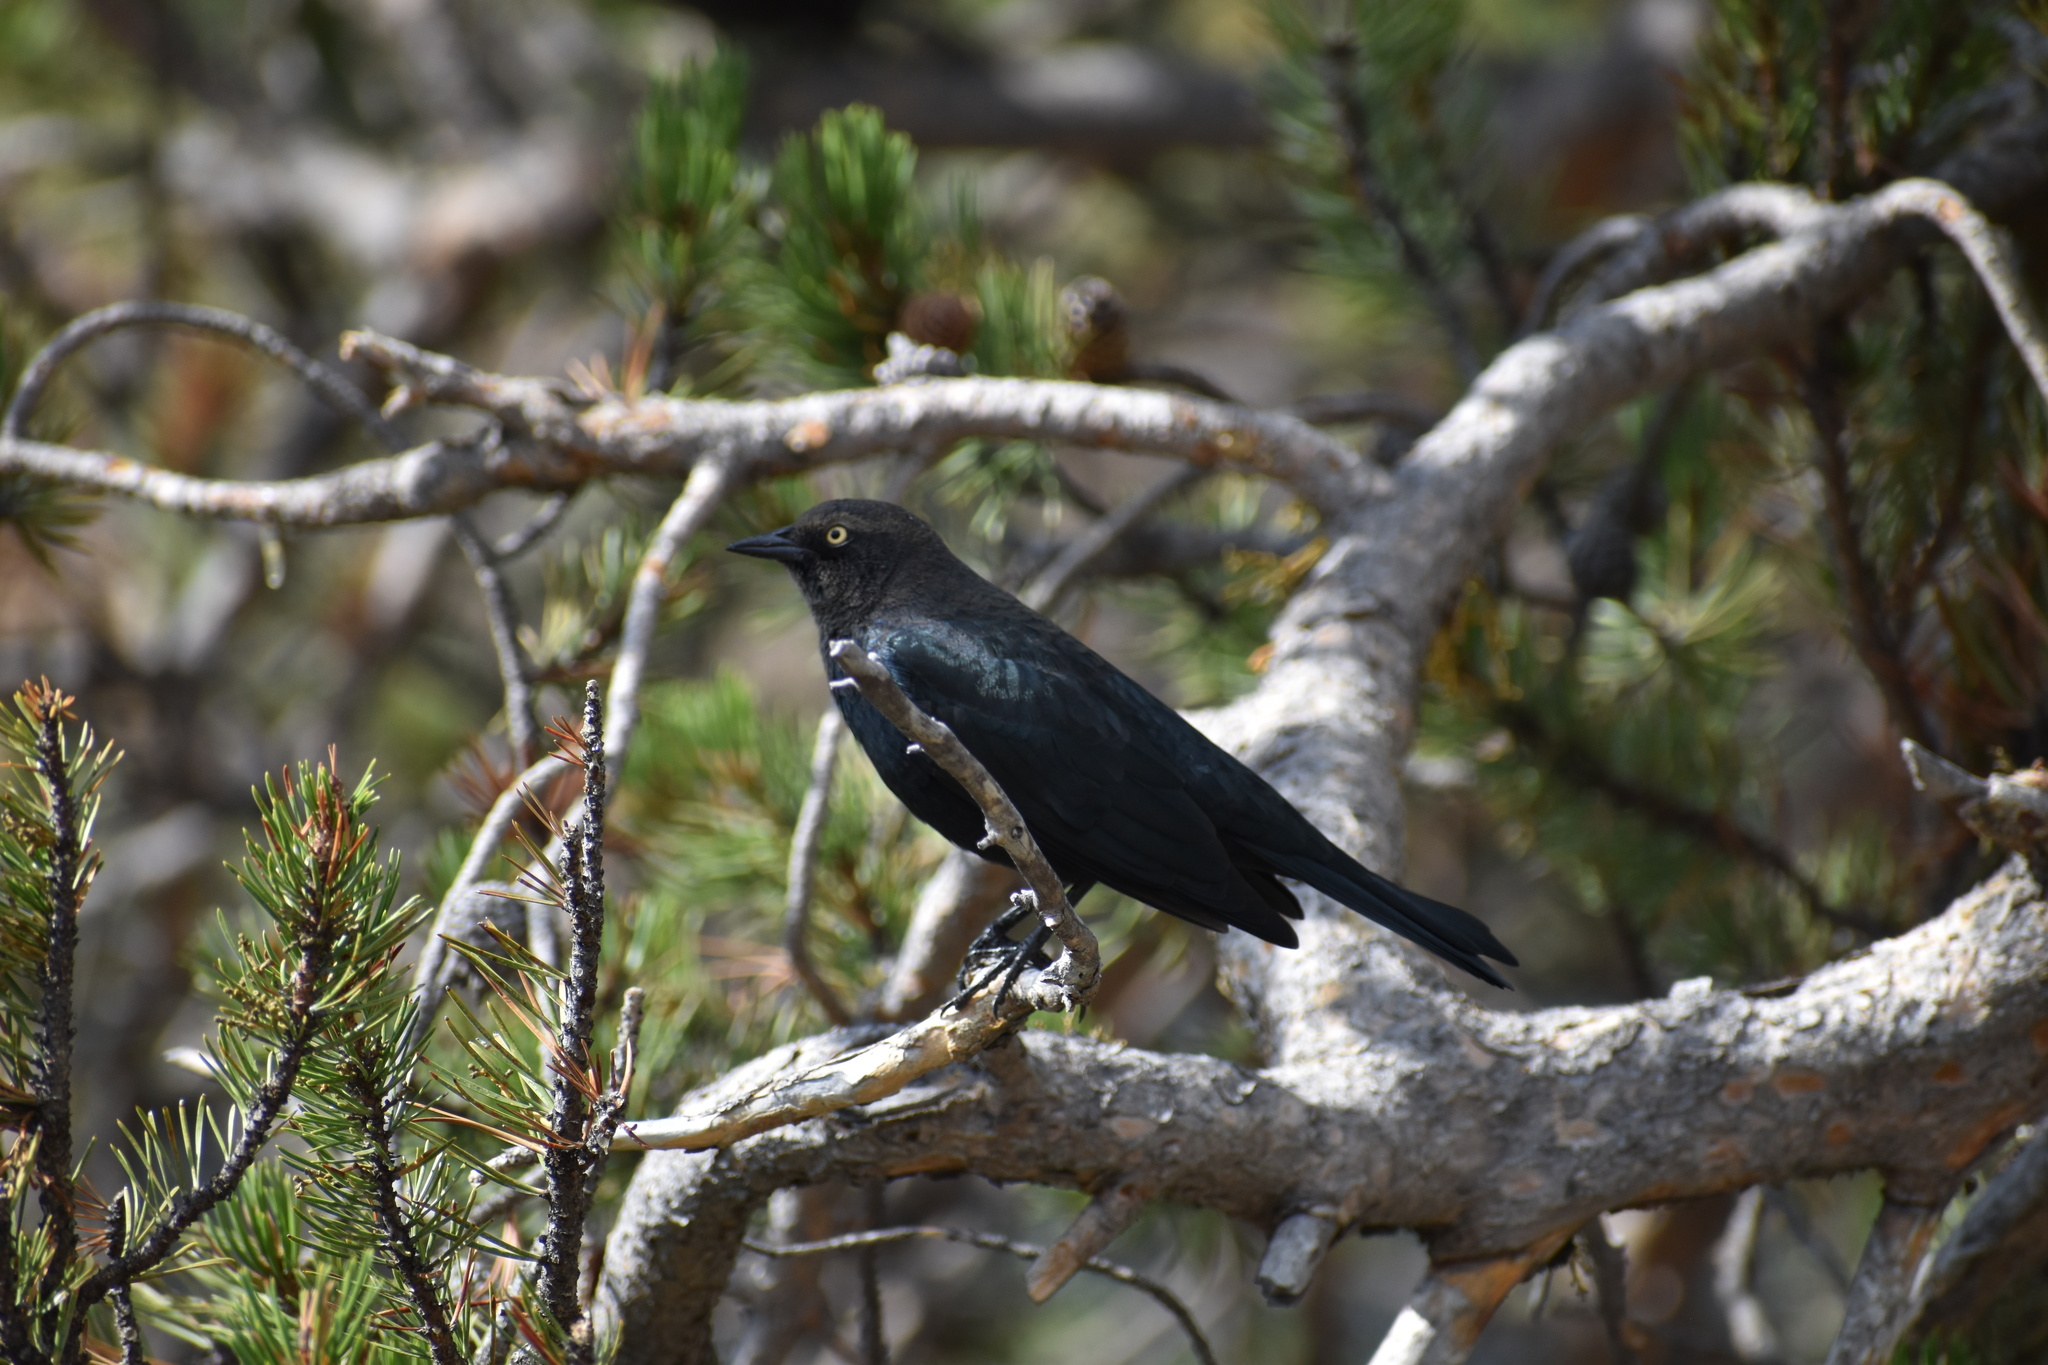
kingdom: Animalia
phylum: Chordata
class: Aves
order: Passeriformes
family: Icteridae
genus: Euphagus
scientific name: Euphagus cyanocephalus
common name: Brewer's blackbird
